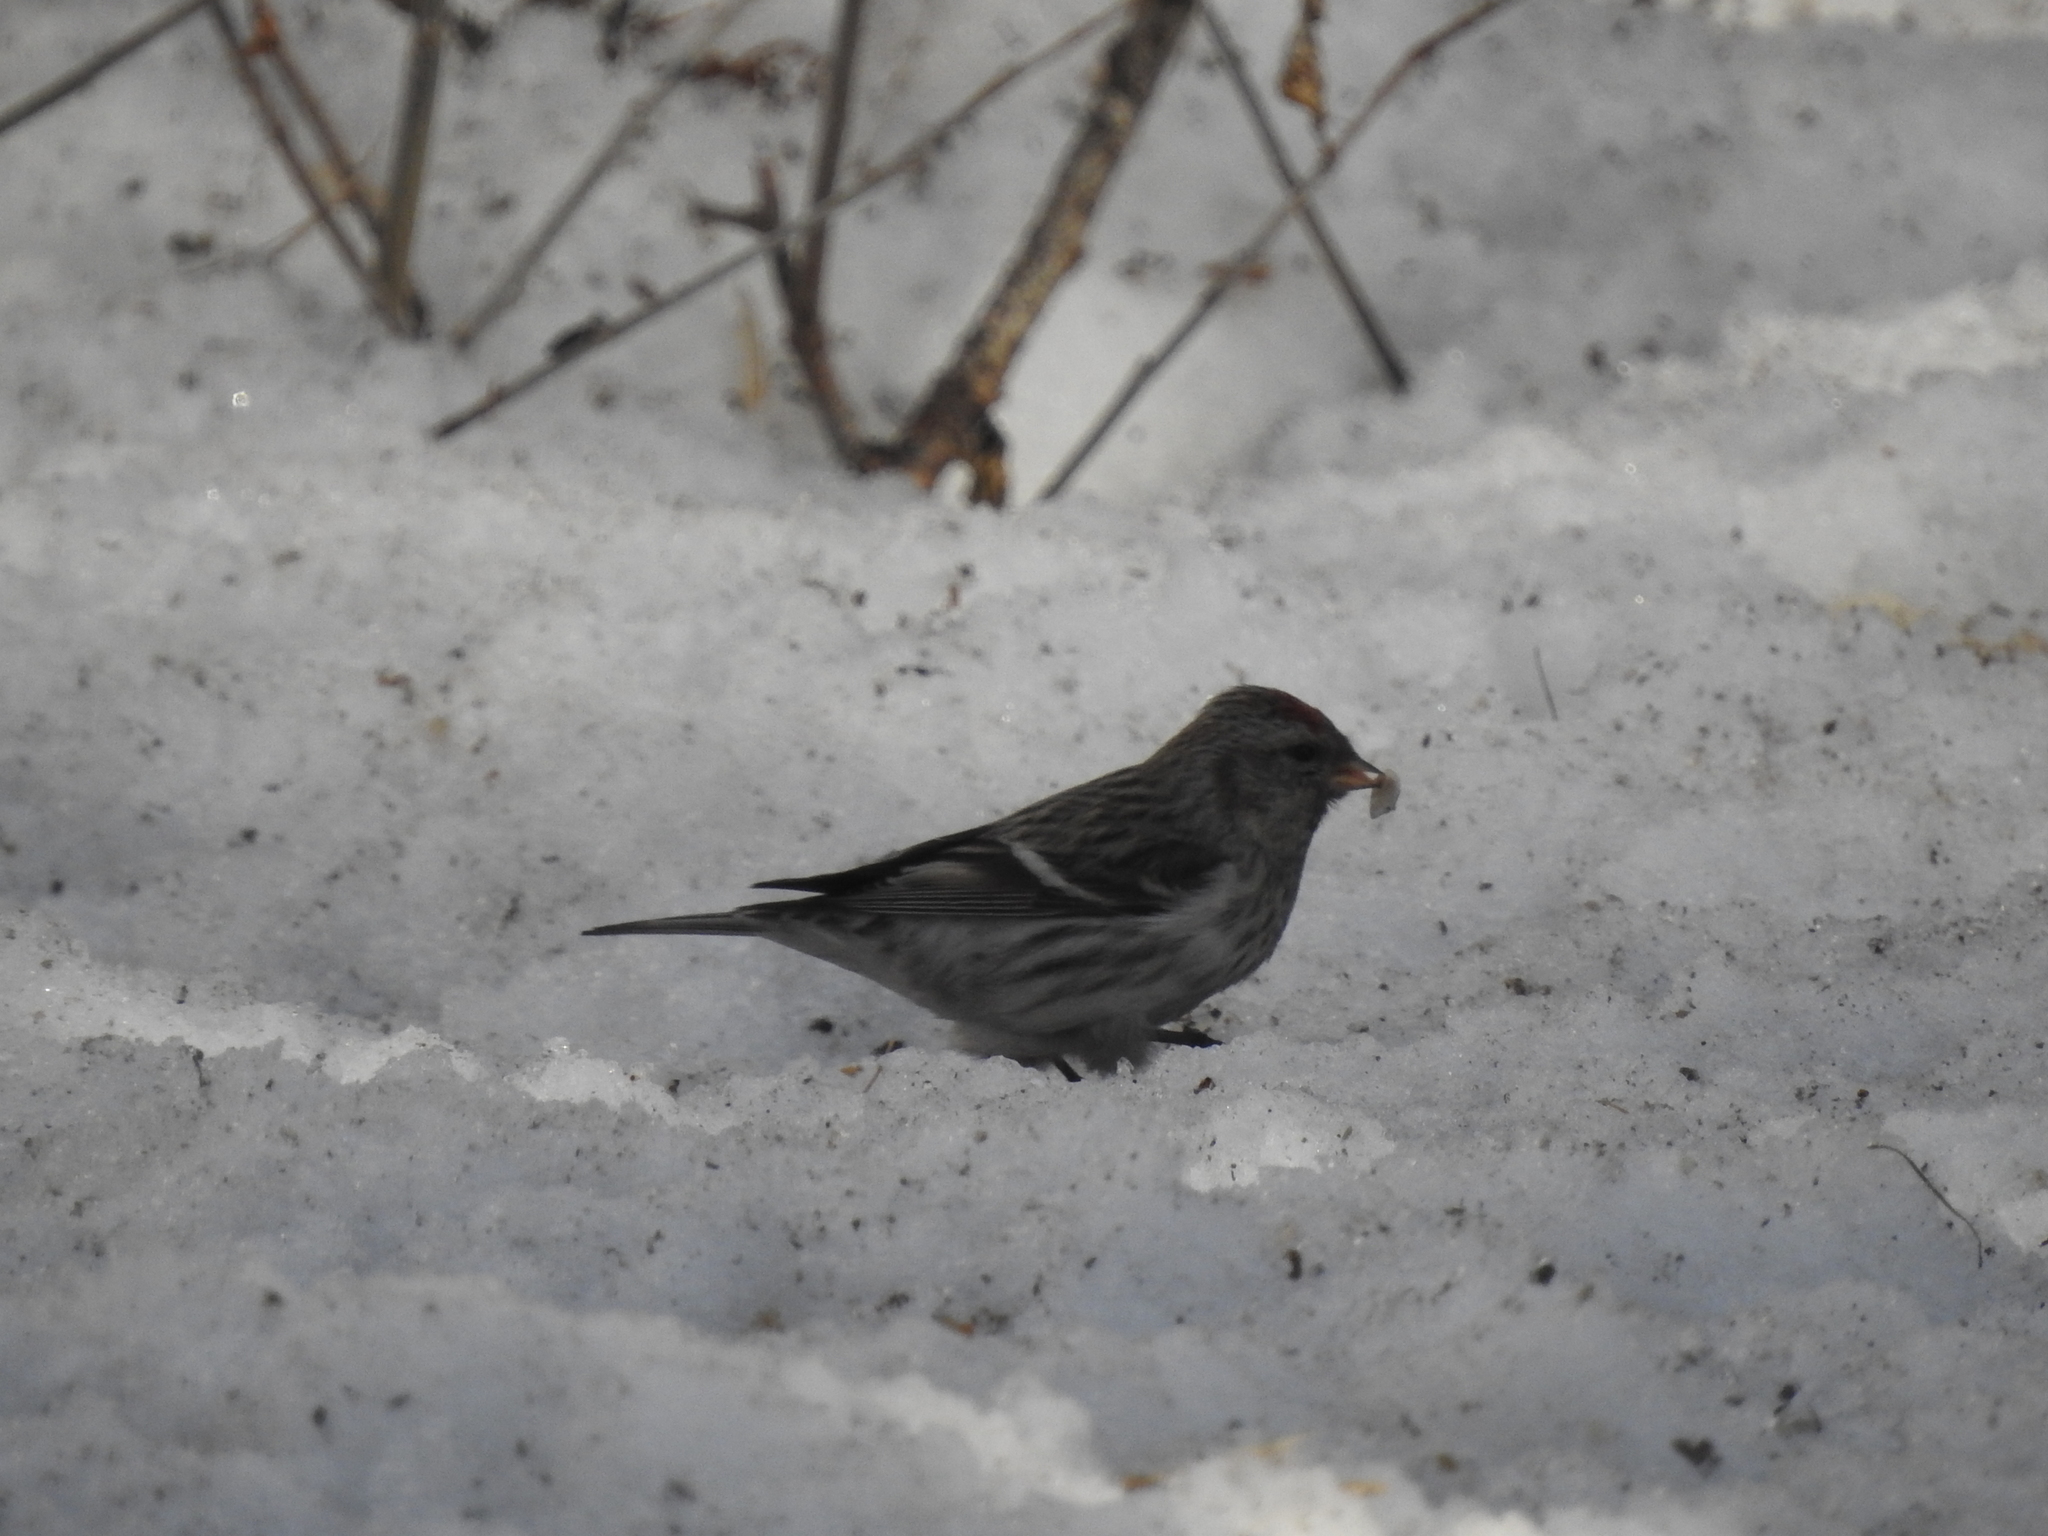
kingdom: Animalia
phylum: Chordata
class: Aves
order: Passeriformes
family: Fringillidae
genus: Acanthis
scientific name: Acanthis flammea
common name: Common redpoll
